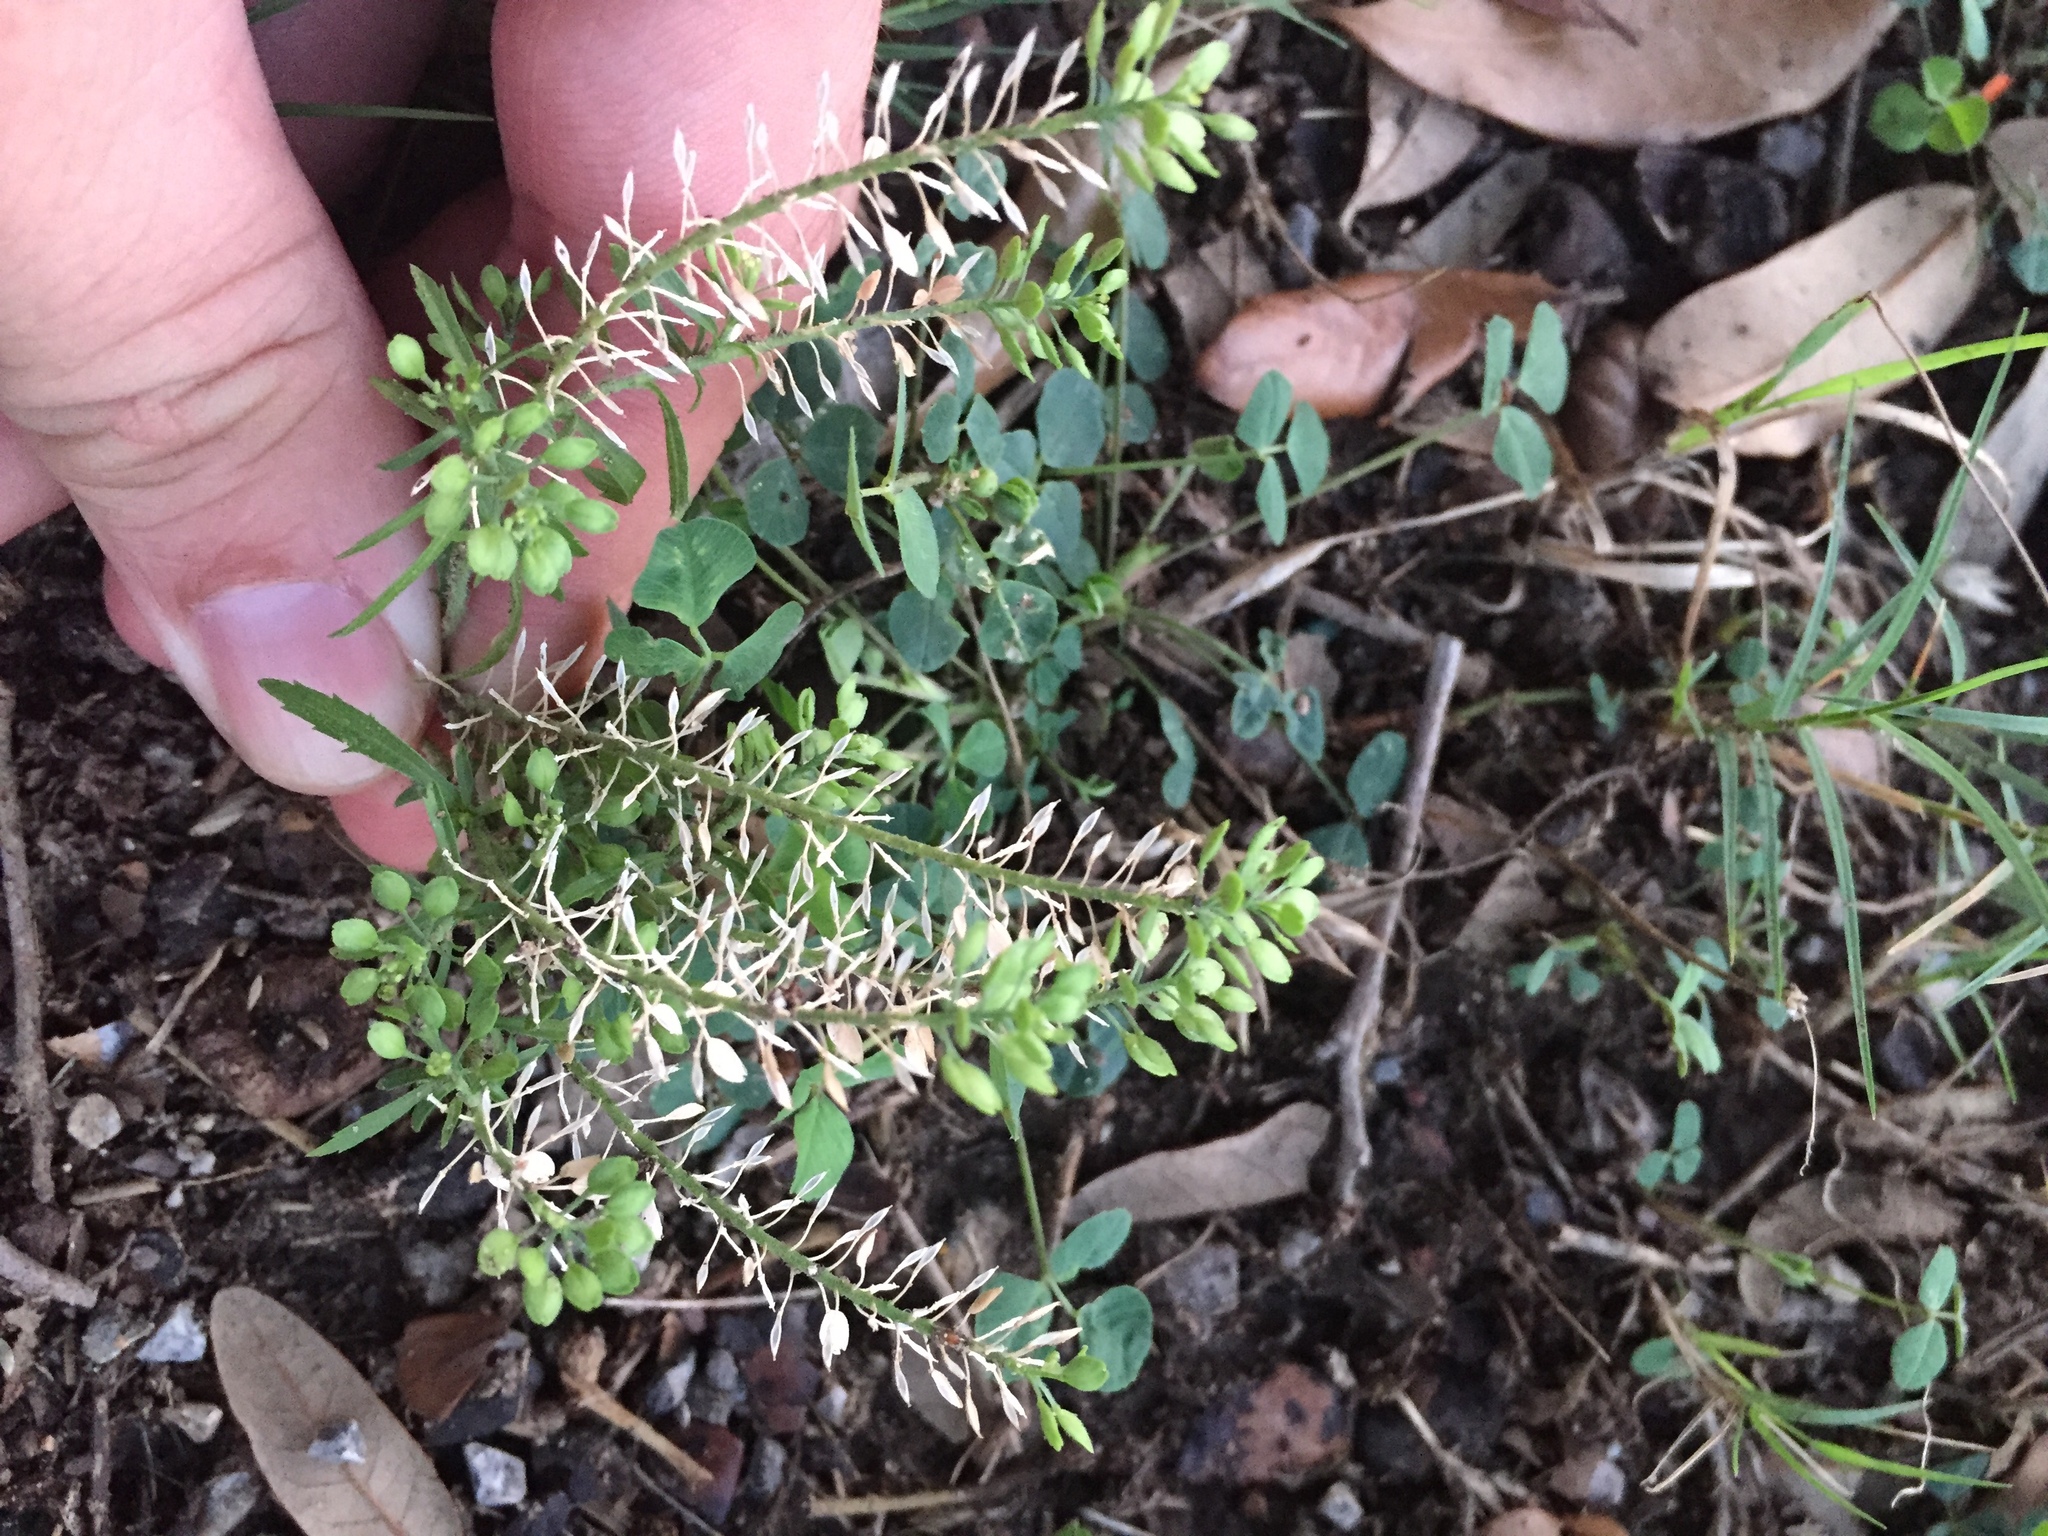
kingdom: Plantae
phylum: Tracheophyta
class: Magnoliopsida
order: Brassicales
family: Brassicaceae
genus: Lepidium
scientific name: Lepidium virginicum
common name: Least pepperwort
